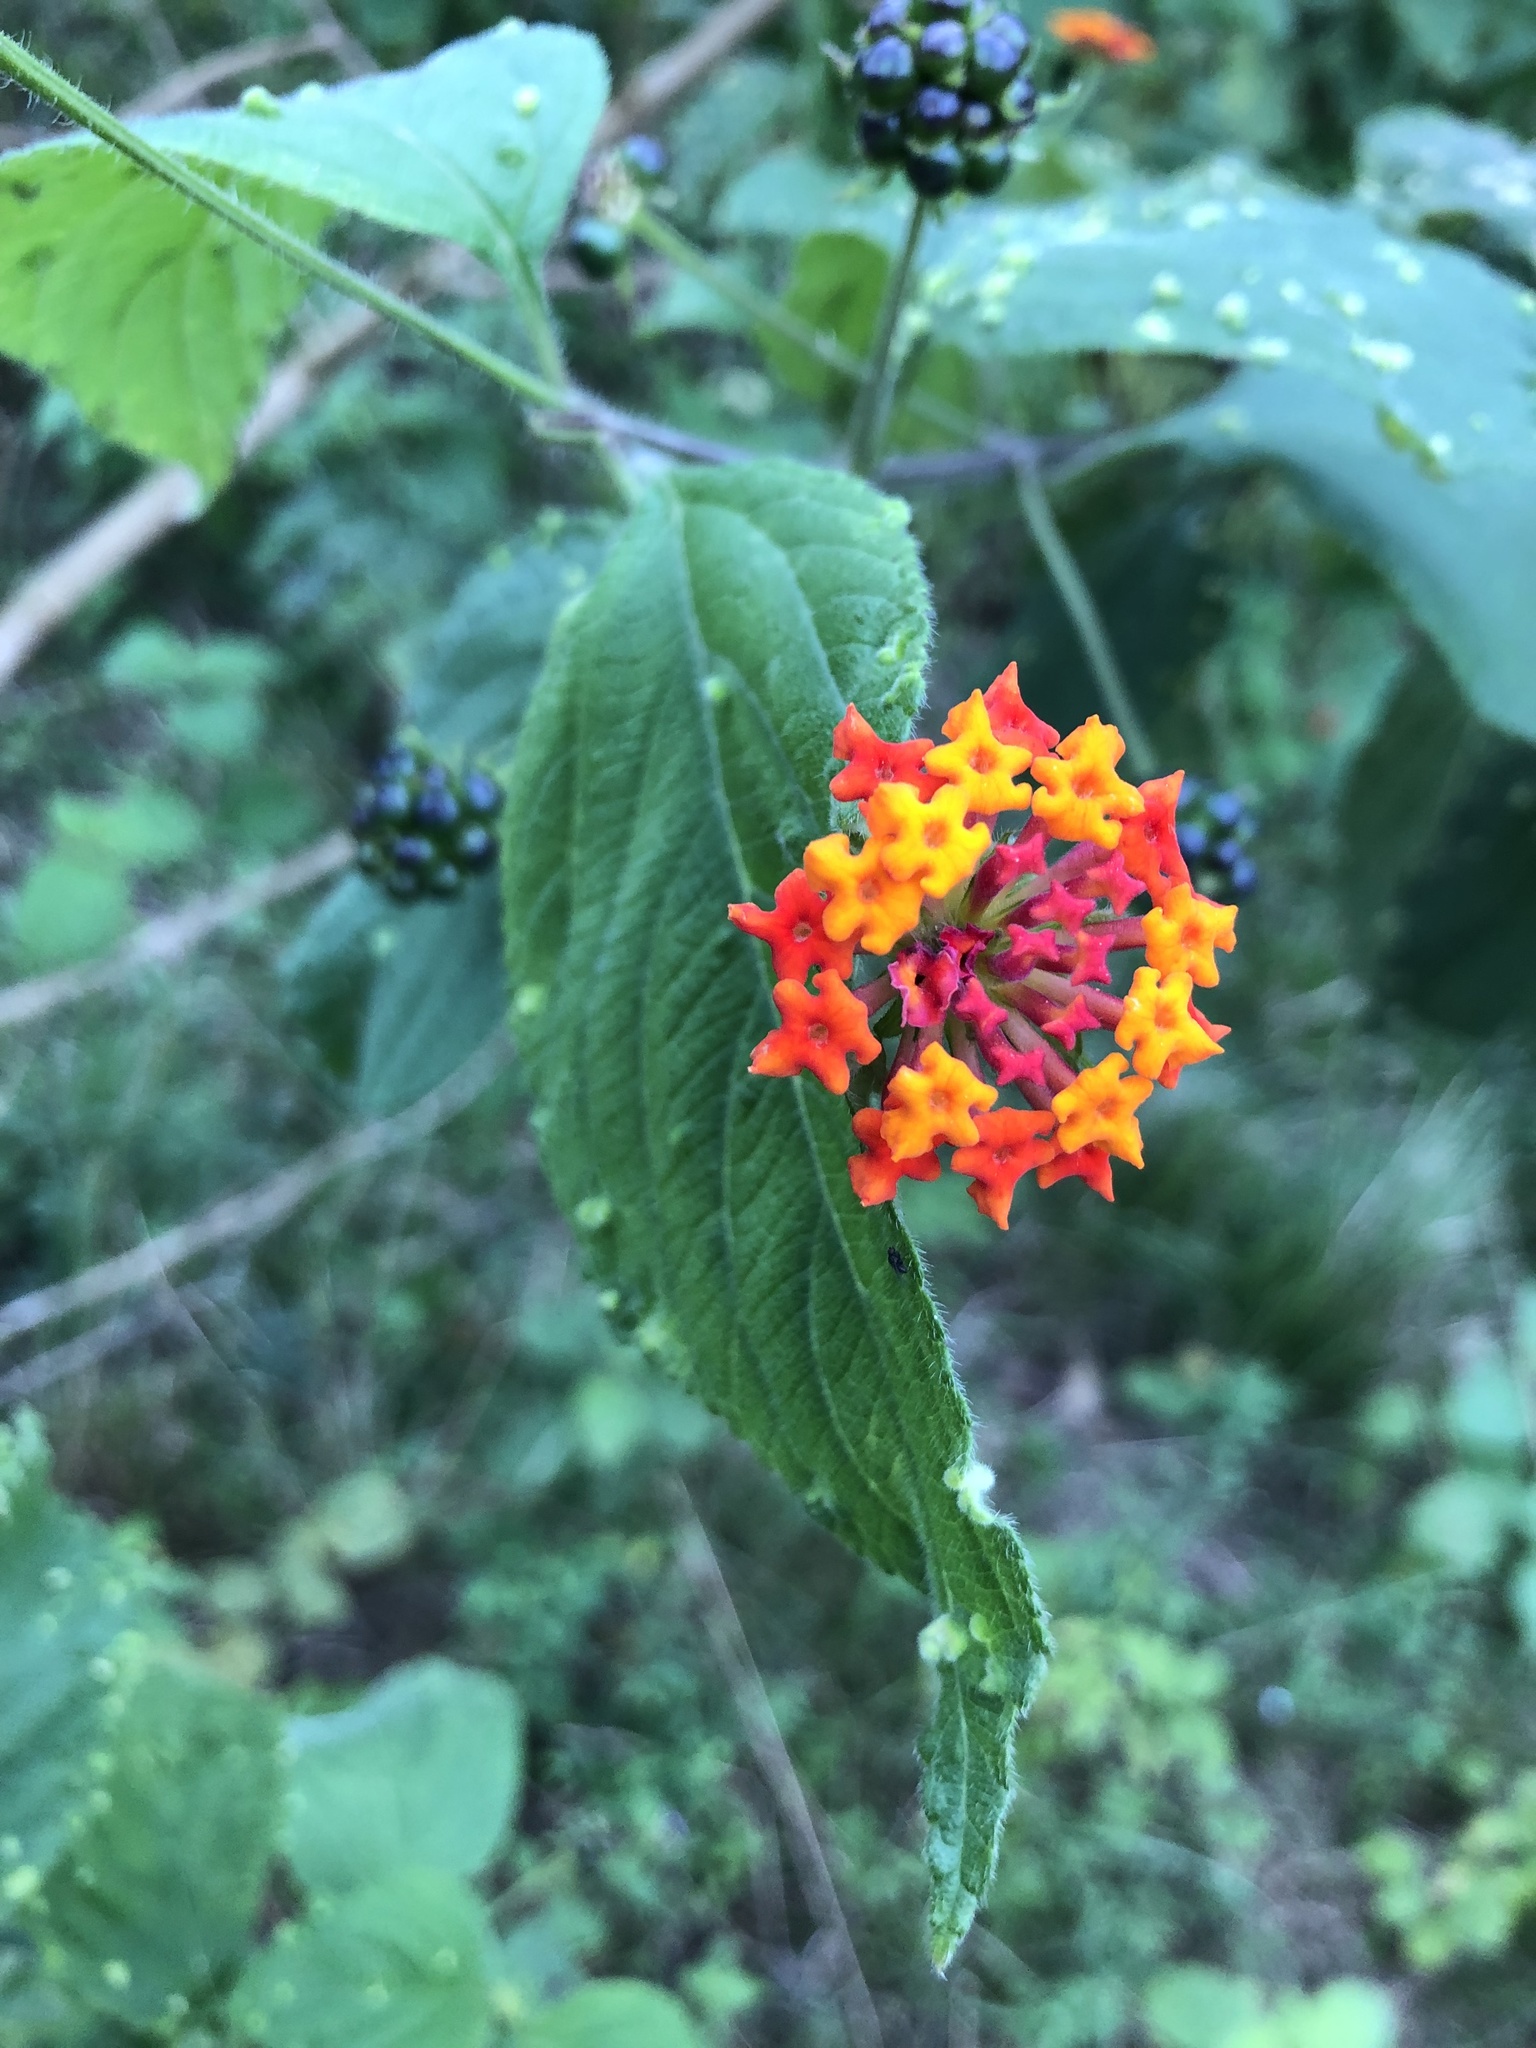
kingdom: Plantae
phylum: Tracheophyta
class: Magnoliopsida
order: Lamiales
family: Verbenaceae
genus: Lantana
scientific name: Lantana cujabensis
